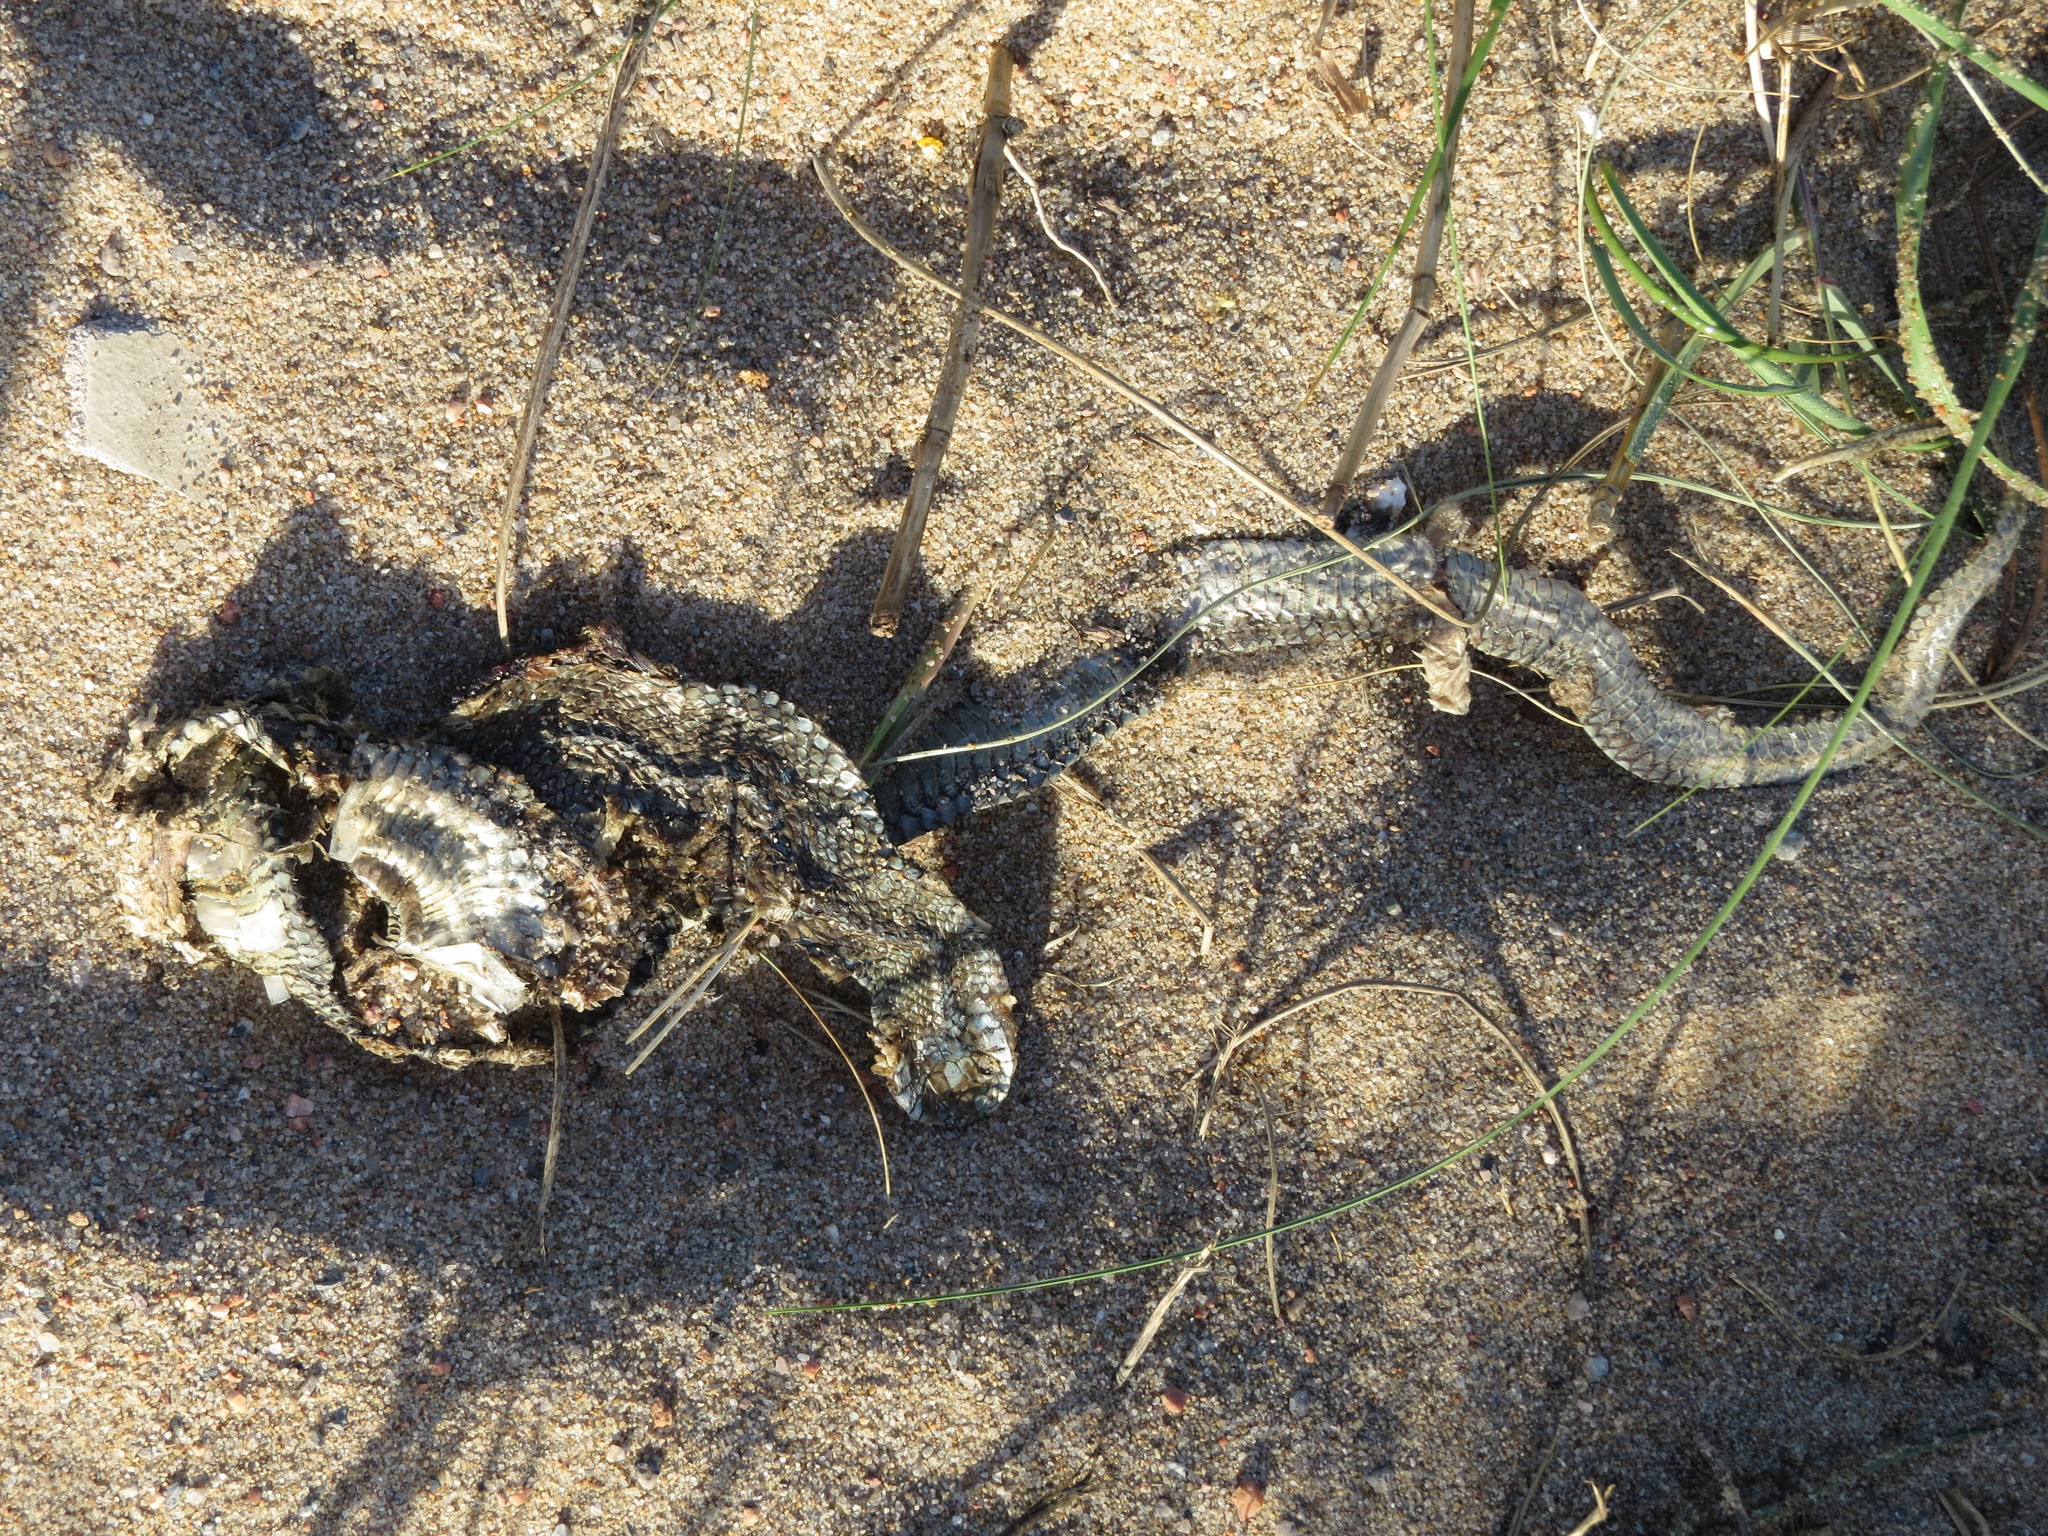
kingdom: Animalia
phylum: Chordata
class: Squamata
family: Colubridae
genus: Philodryas
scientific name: Philodryas patagoniensis
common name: Patagonia green racer
